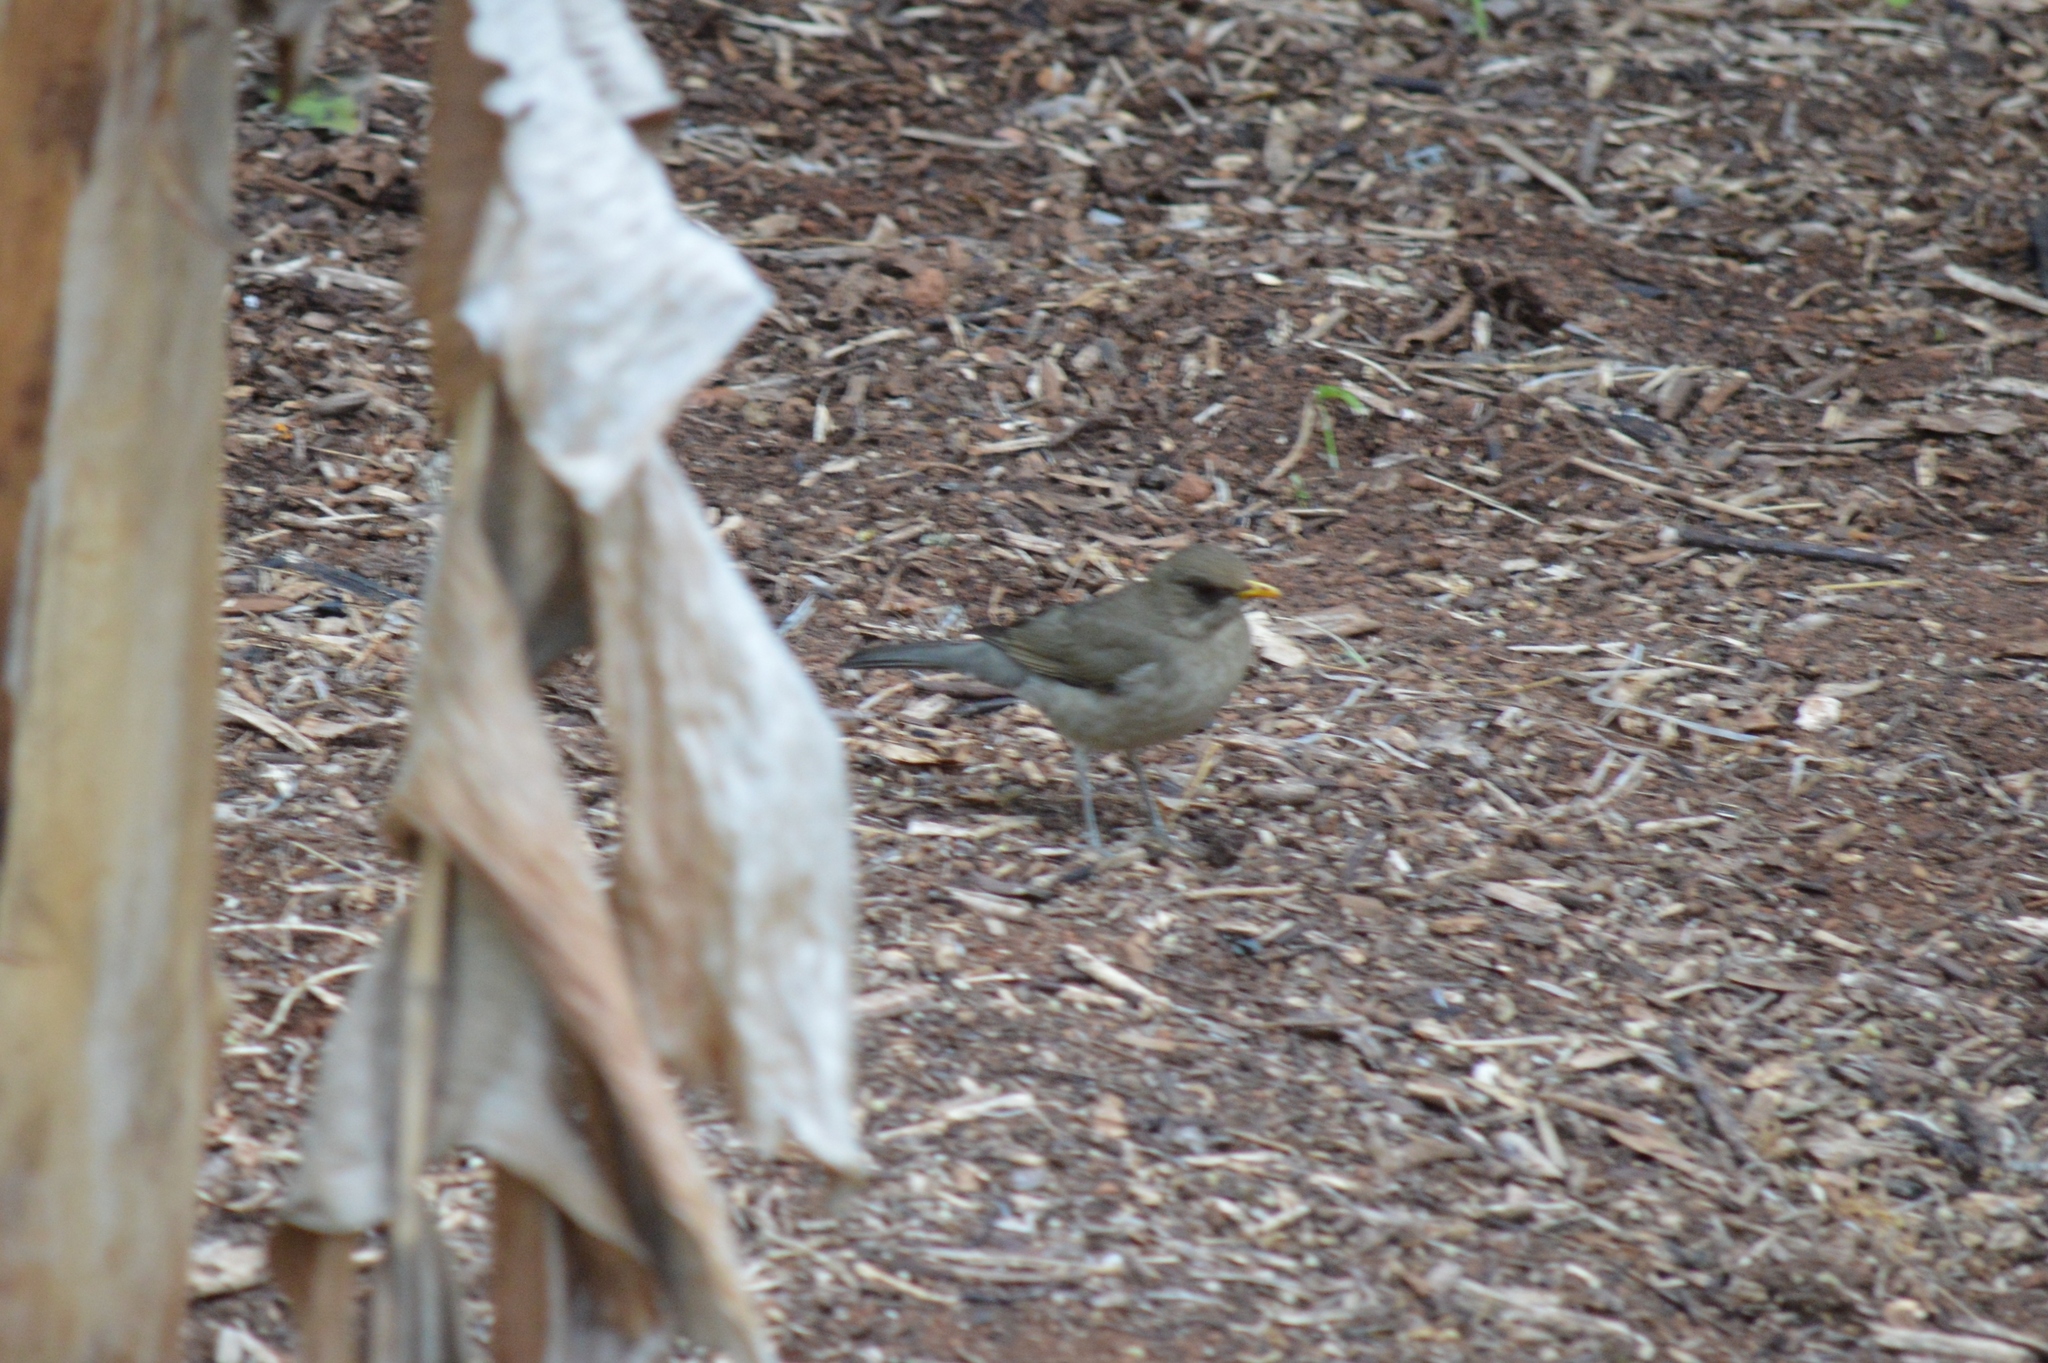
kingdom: Animalia
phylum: Chordata
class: Aves
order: Passeriformes
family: Turdidae
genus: Turdus
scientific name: Turdus amaurochalinus
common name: Creamy-bellied thrush
